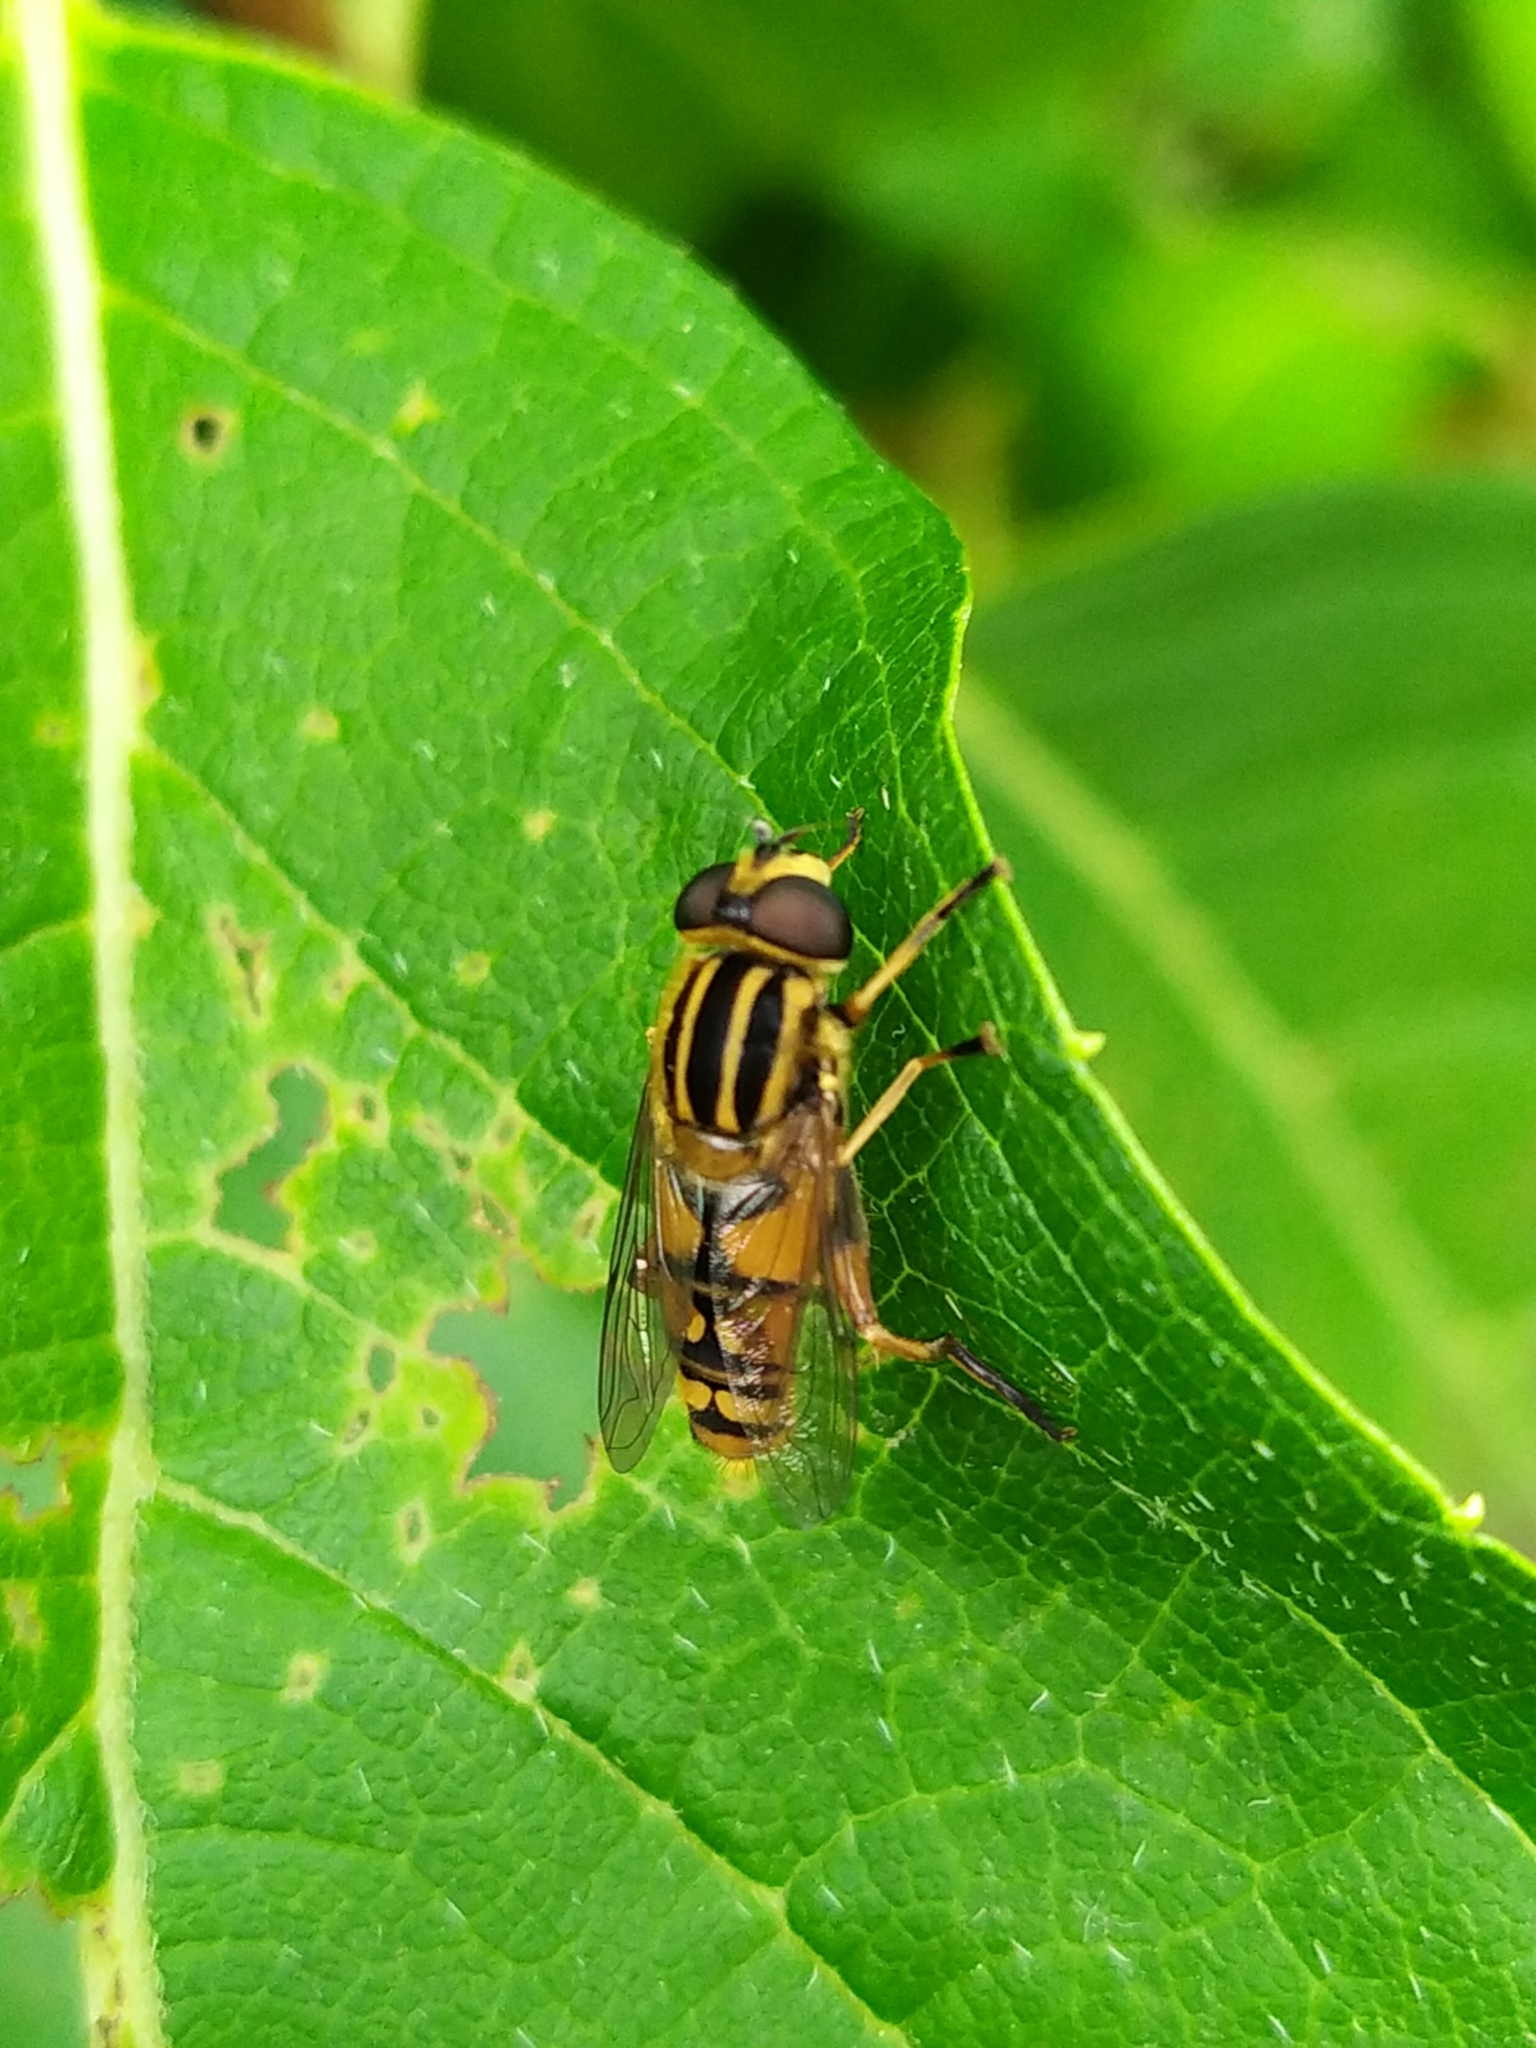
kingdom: Animalia
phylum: Arthropoda
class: Insecta
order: Diptera
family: Syrphidae
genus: Helophilus
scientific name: Helophilus pendulus
